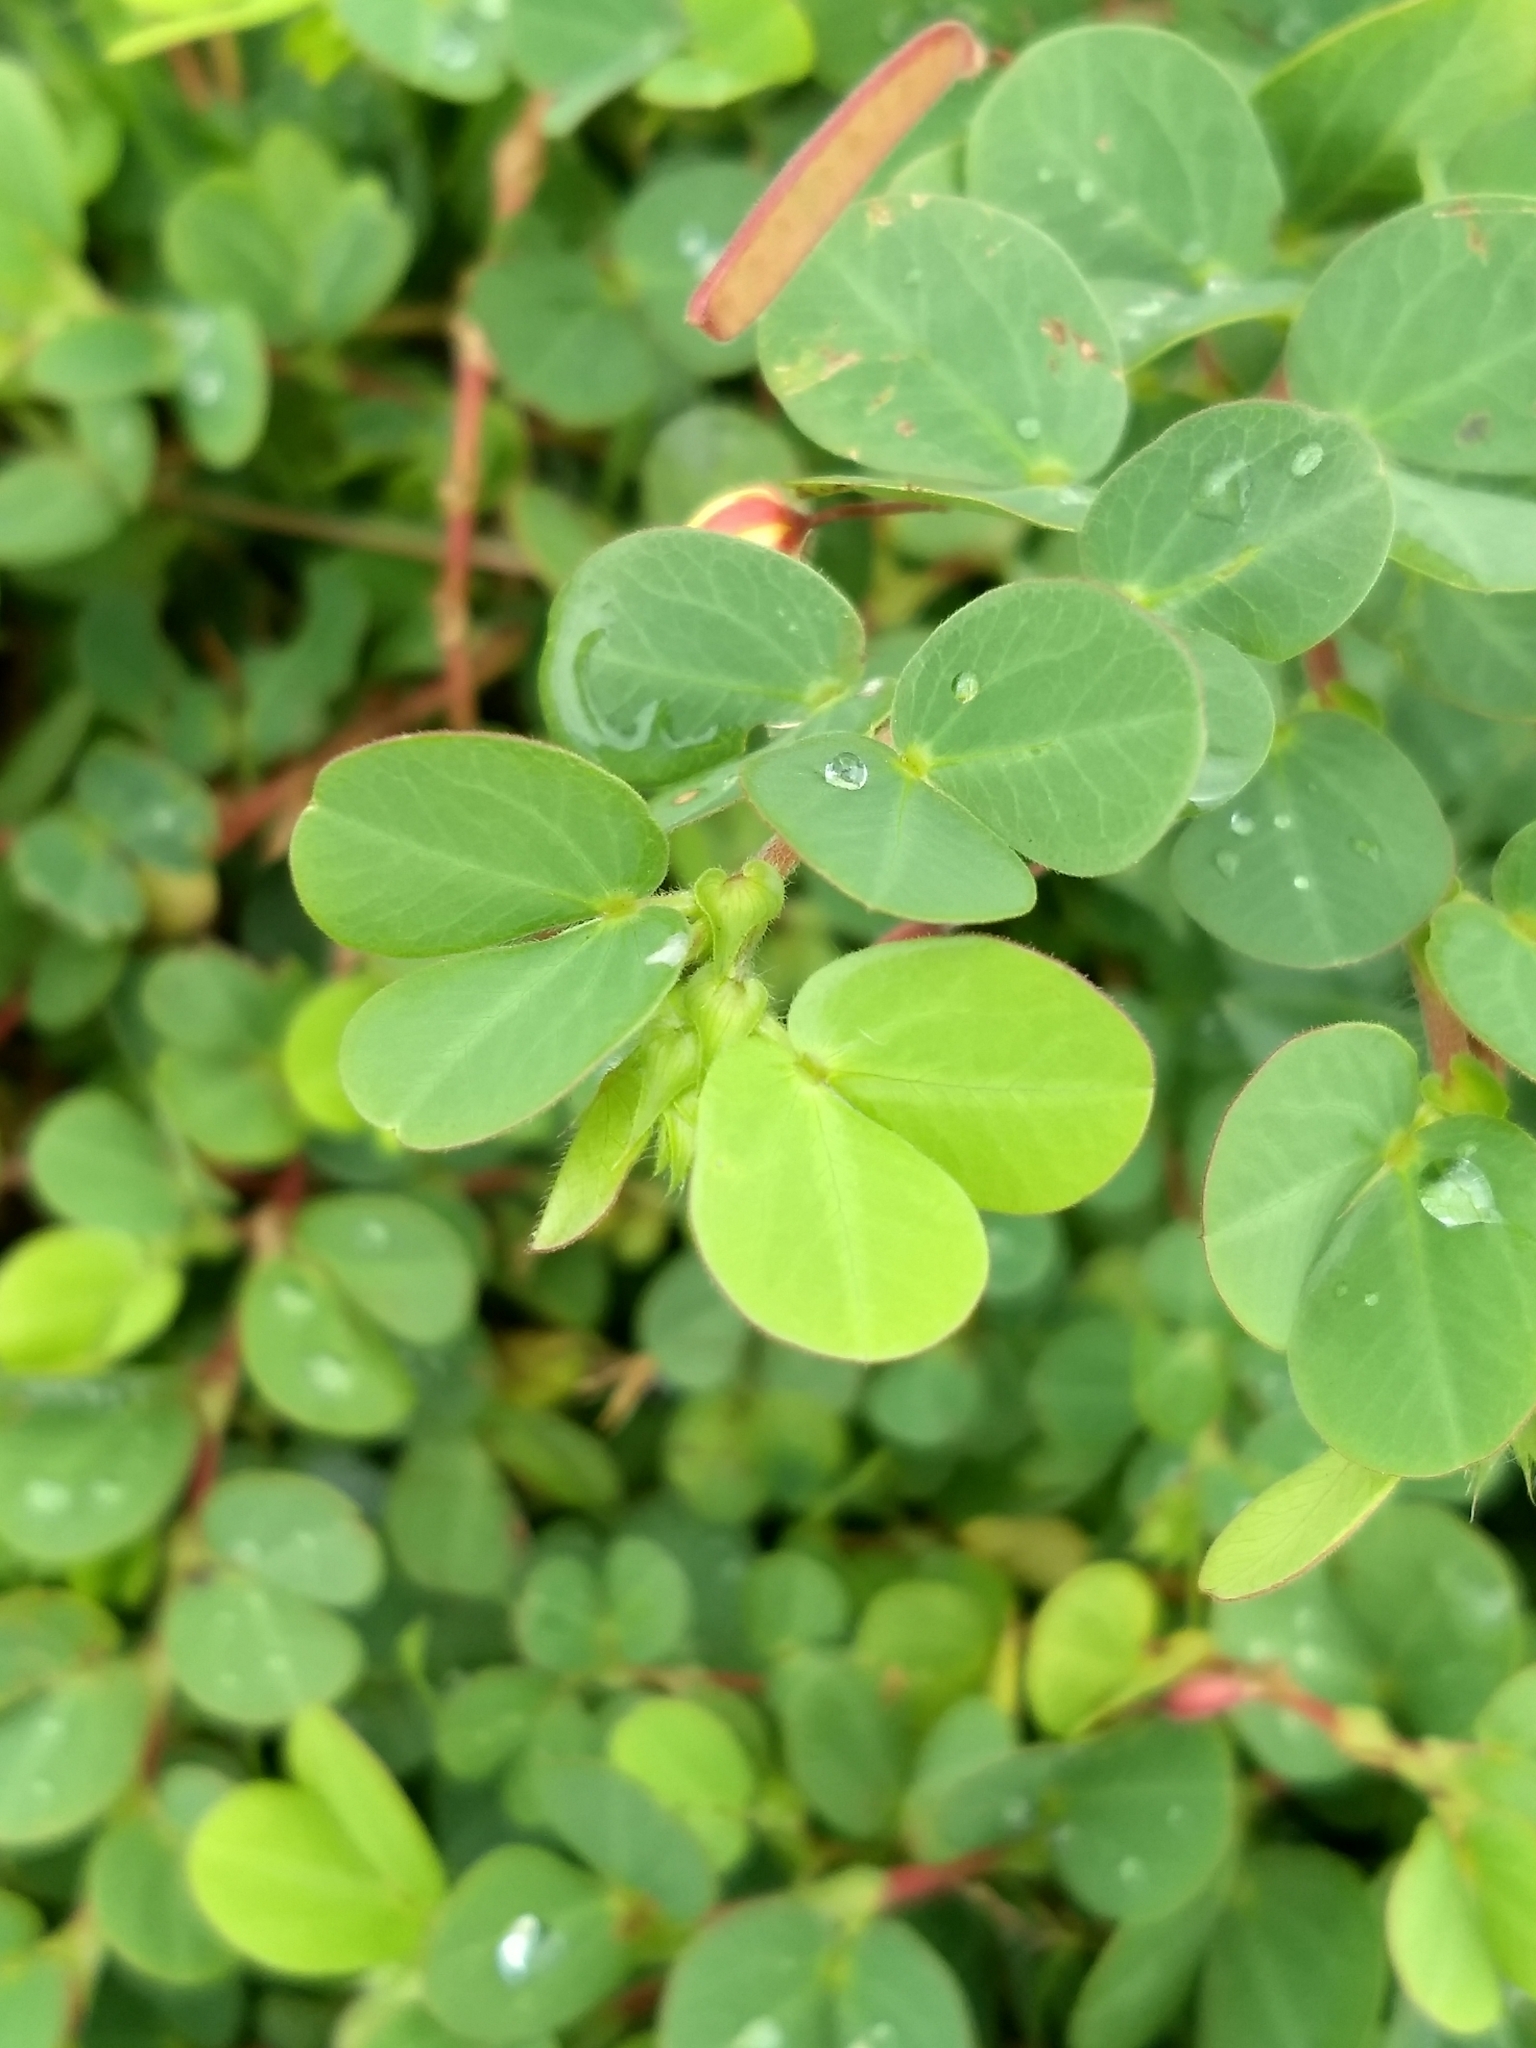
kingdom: Plantae
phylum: Tracheophyta
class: Magnoliopsida
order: Fabales
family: Fabaceae
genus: Chamaecrista
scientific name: Chamaecrista rotundifolia
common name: Round-leaf cassia
